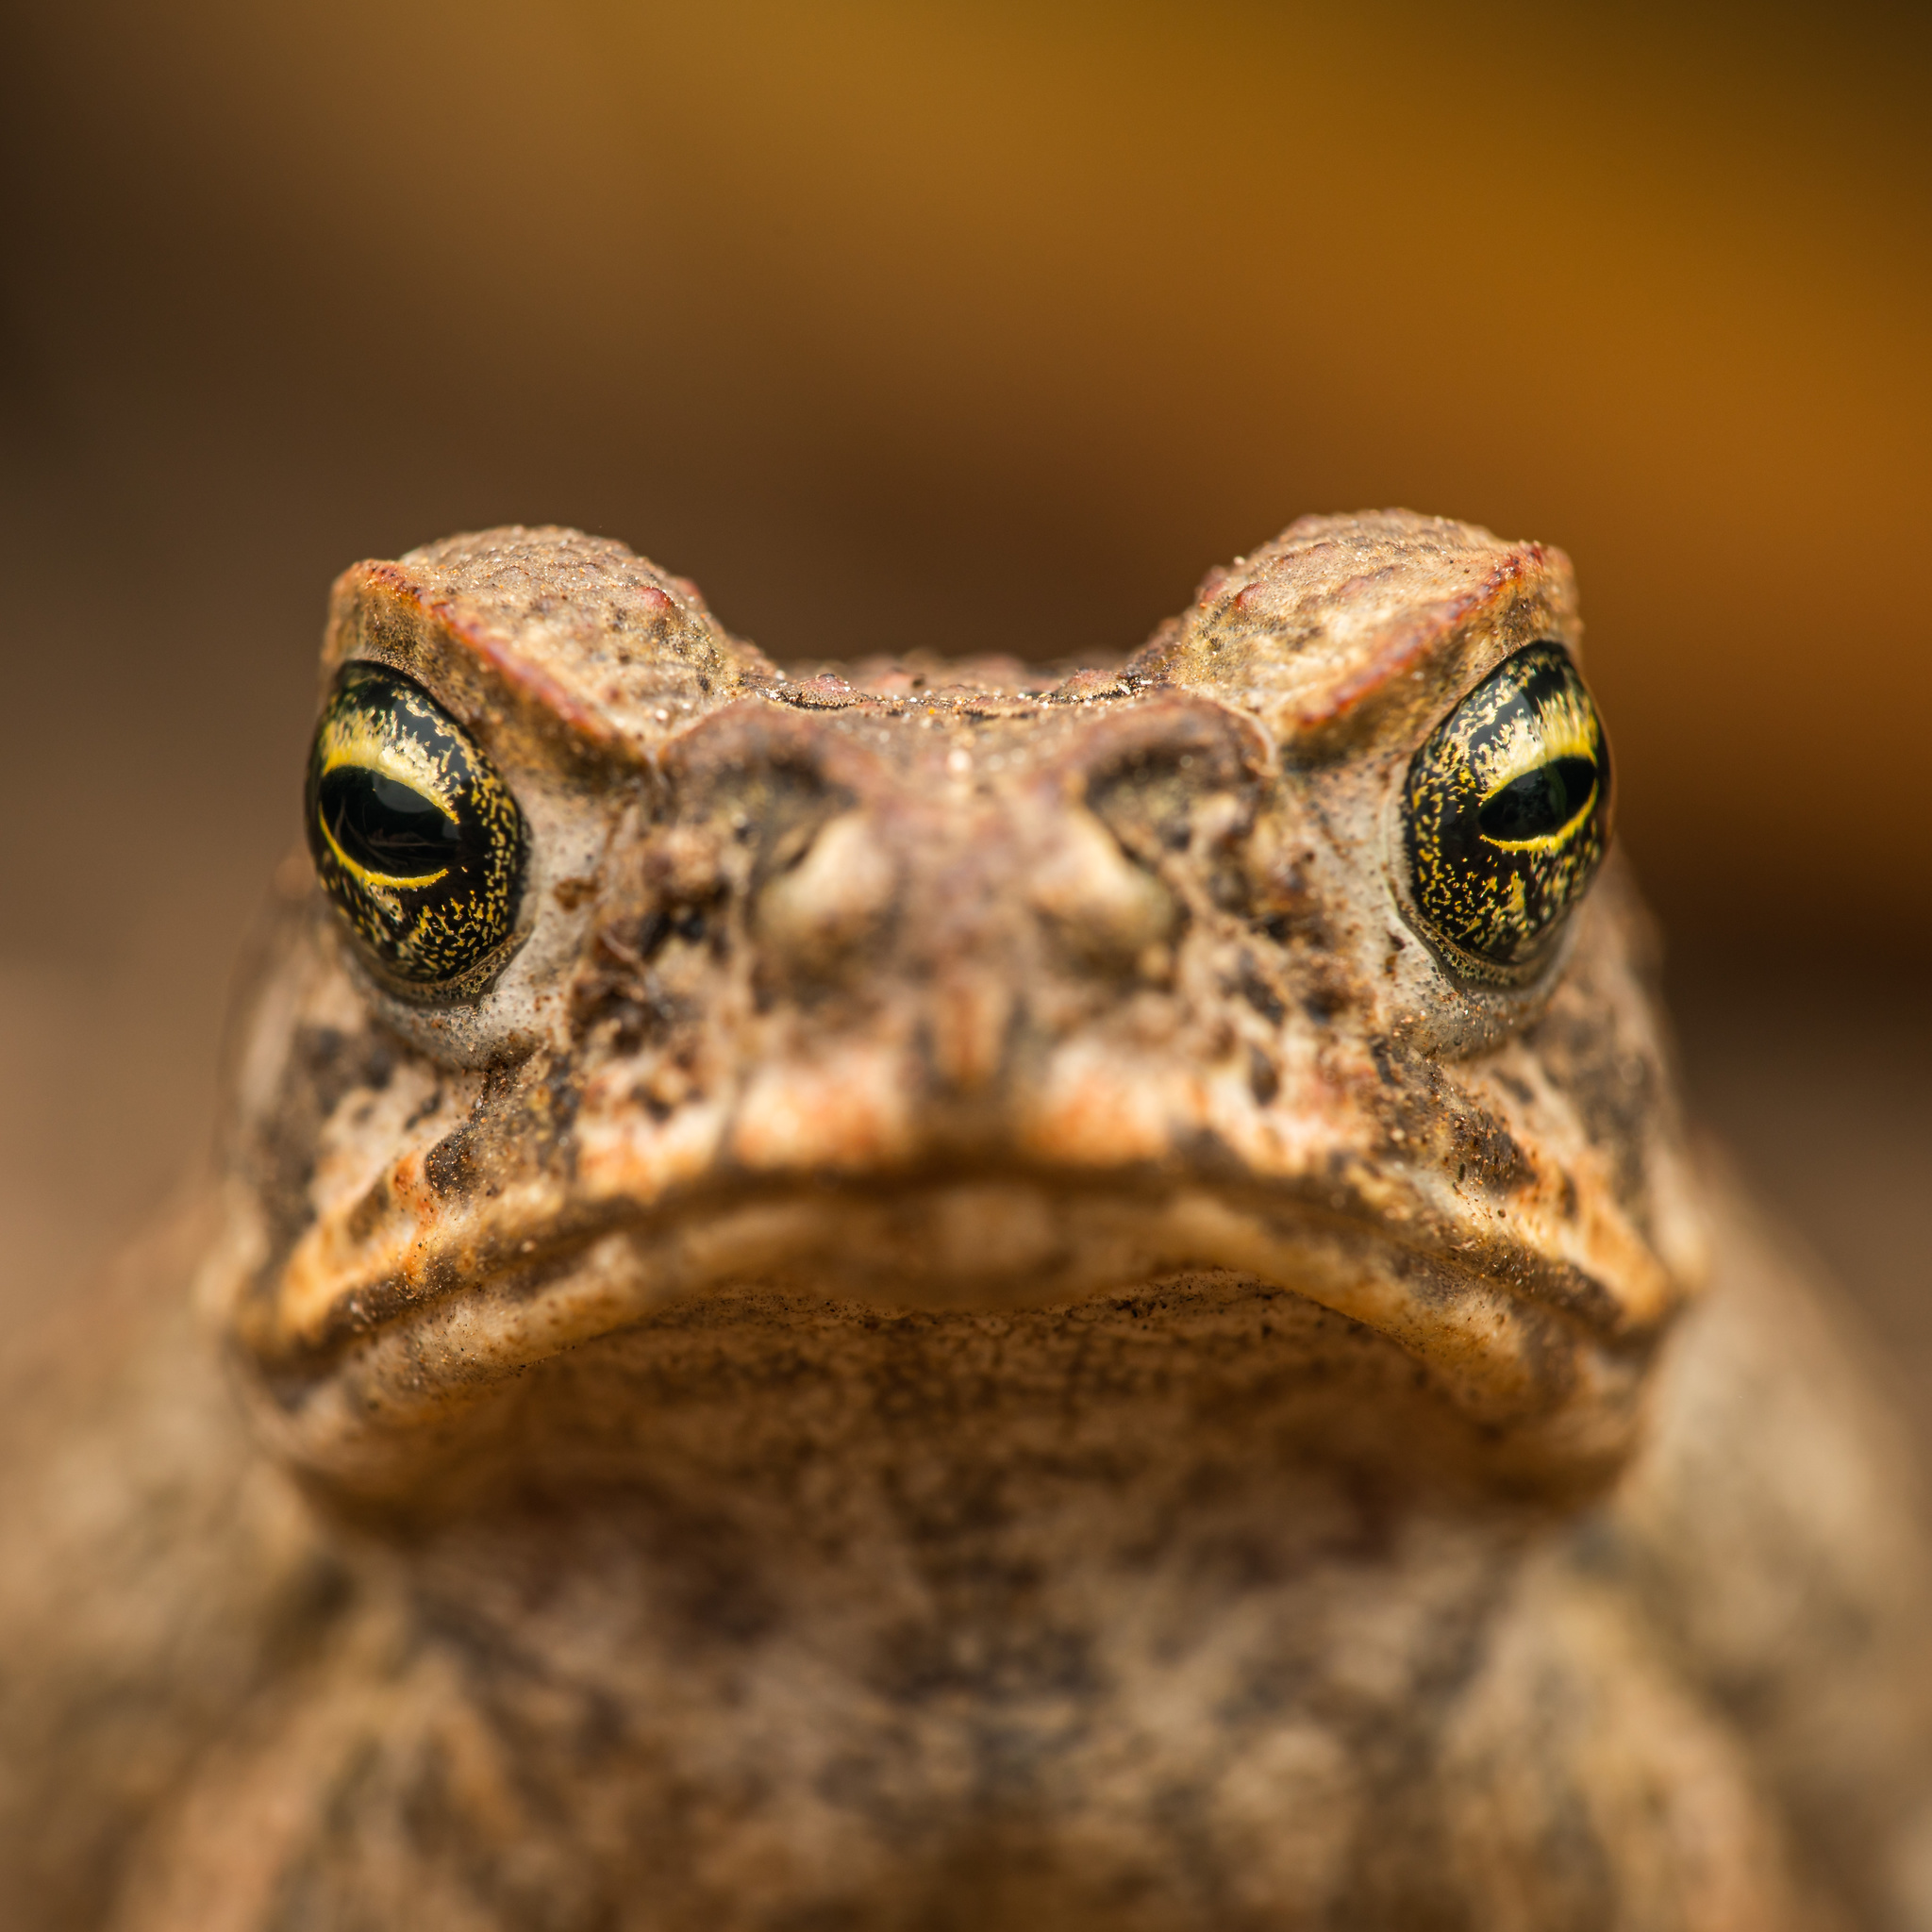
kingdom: Animalia
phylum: Chordata
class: Amphibia
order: Anura
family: Bufonidae
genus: Rhinella
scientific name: Rhinella marina
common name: Cane toad
